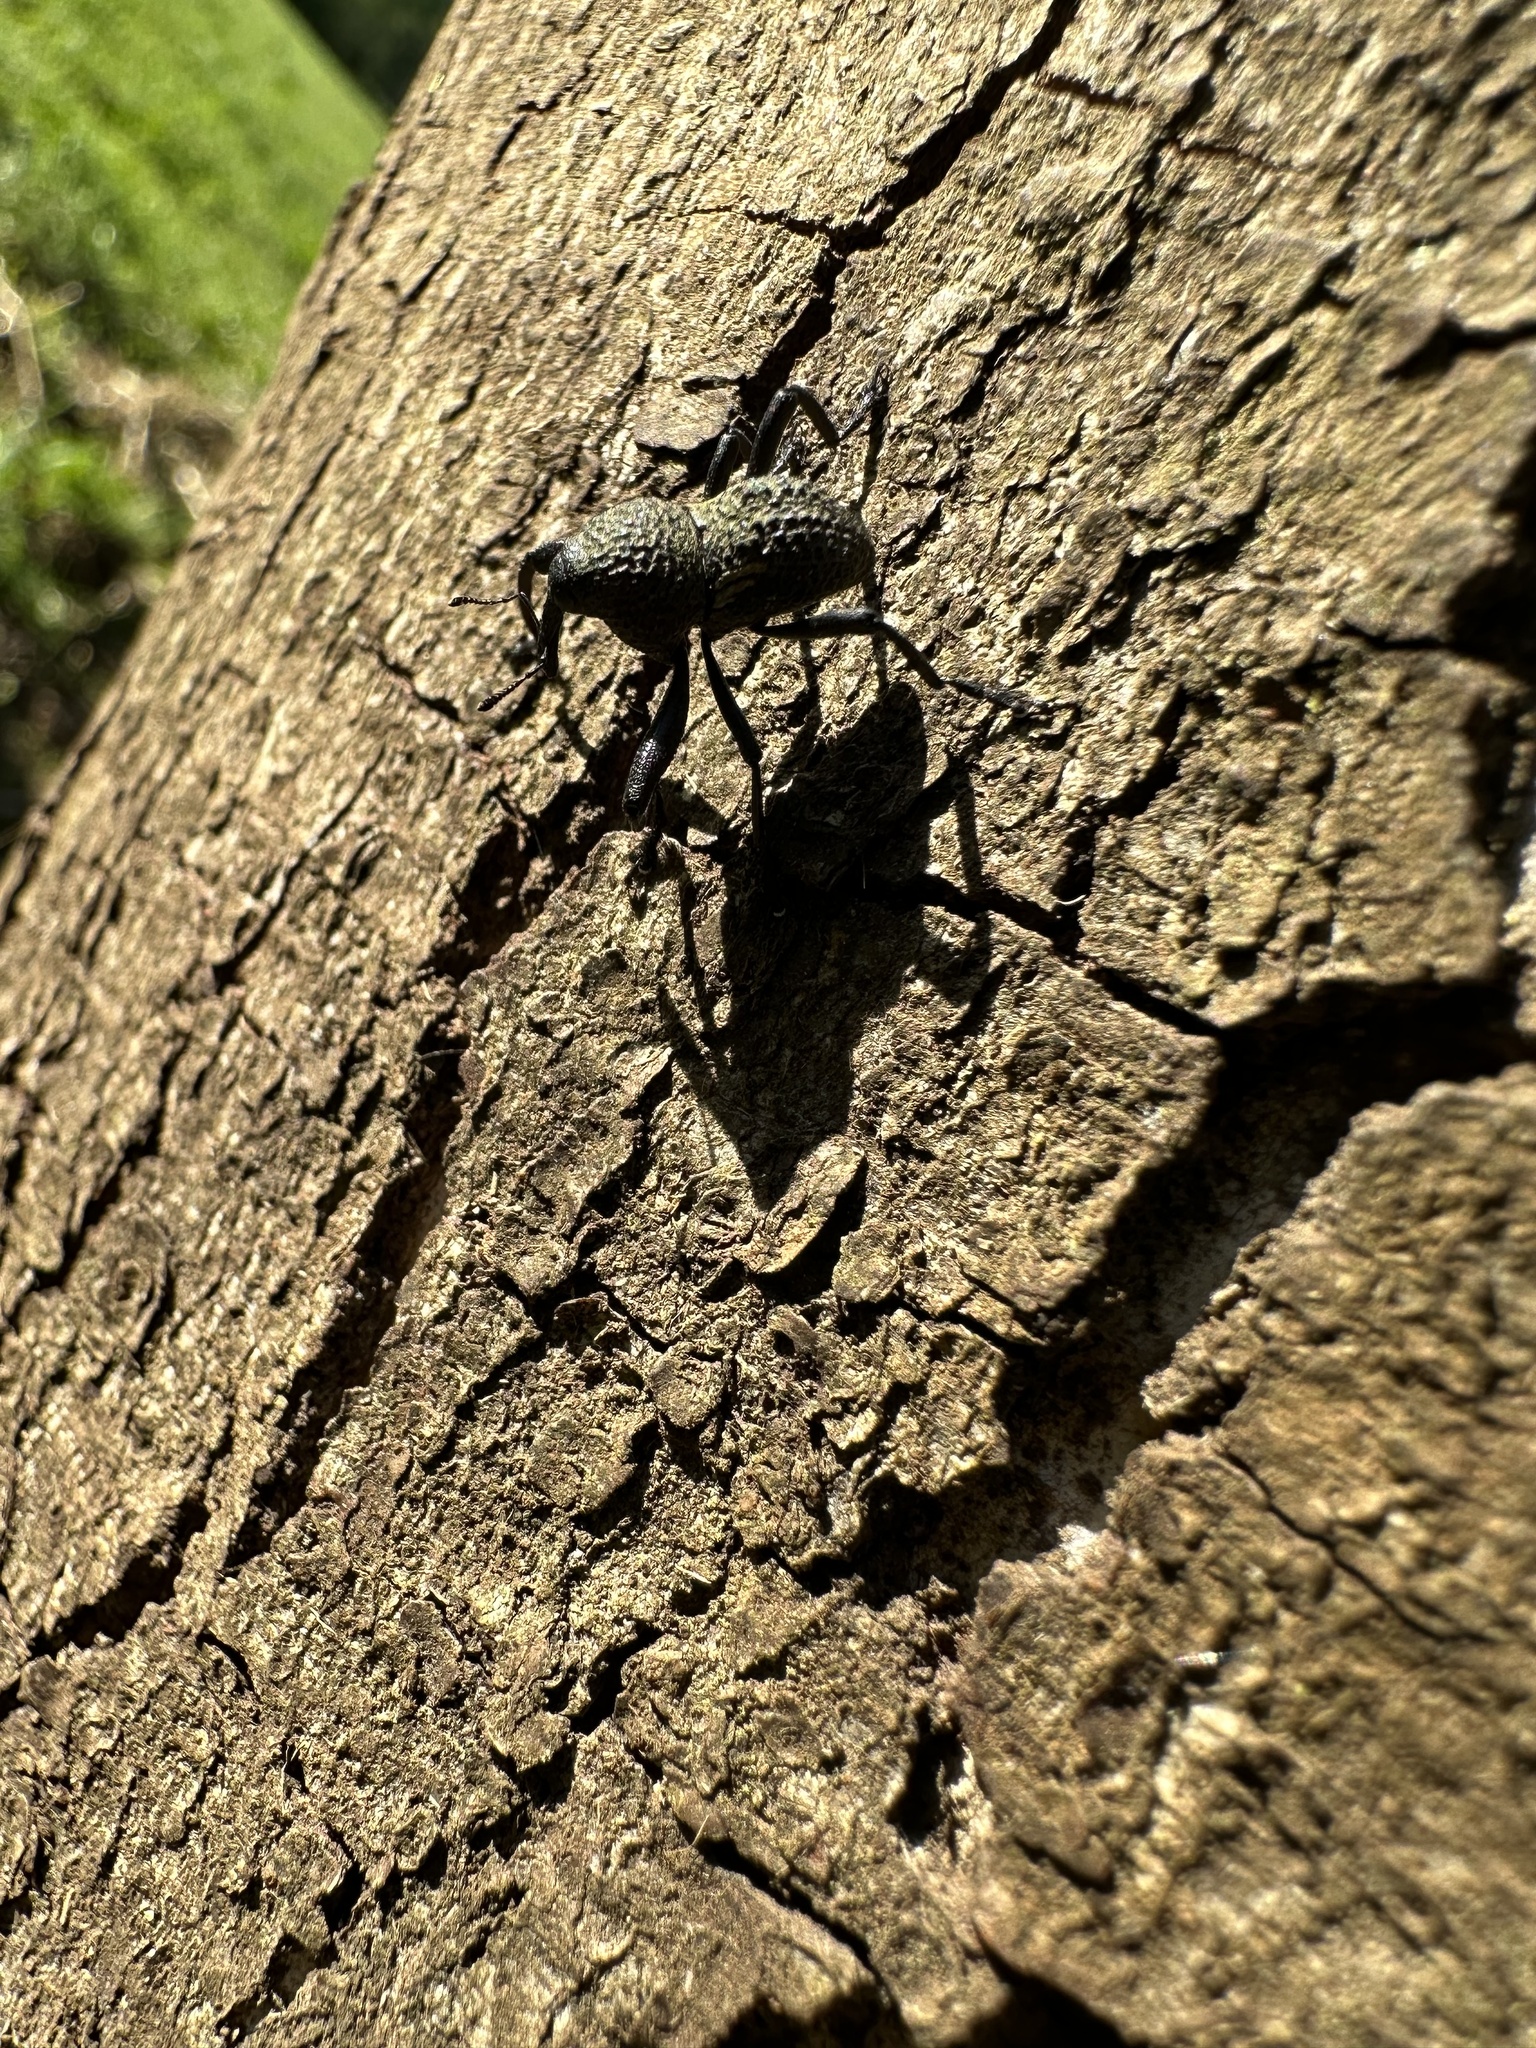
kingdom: Animalia
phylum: Arthropoda
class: Insecta
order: Coleoptera
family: Curculionidae
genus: Rhyephenes
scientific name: Rhyephenes humeralis
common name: Araè±ita chilena del pino
